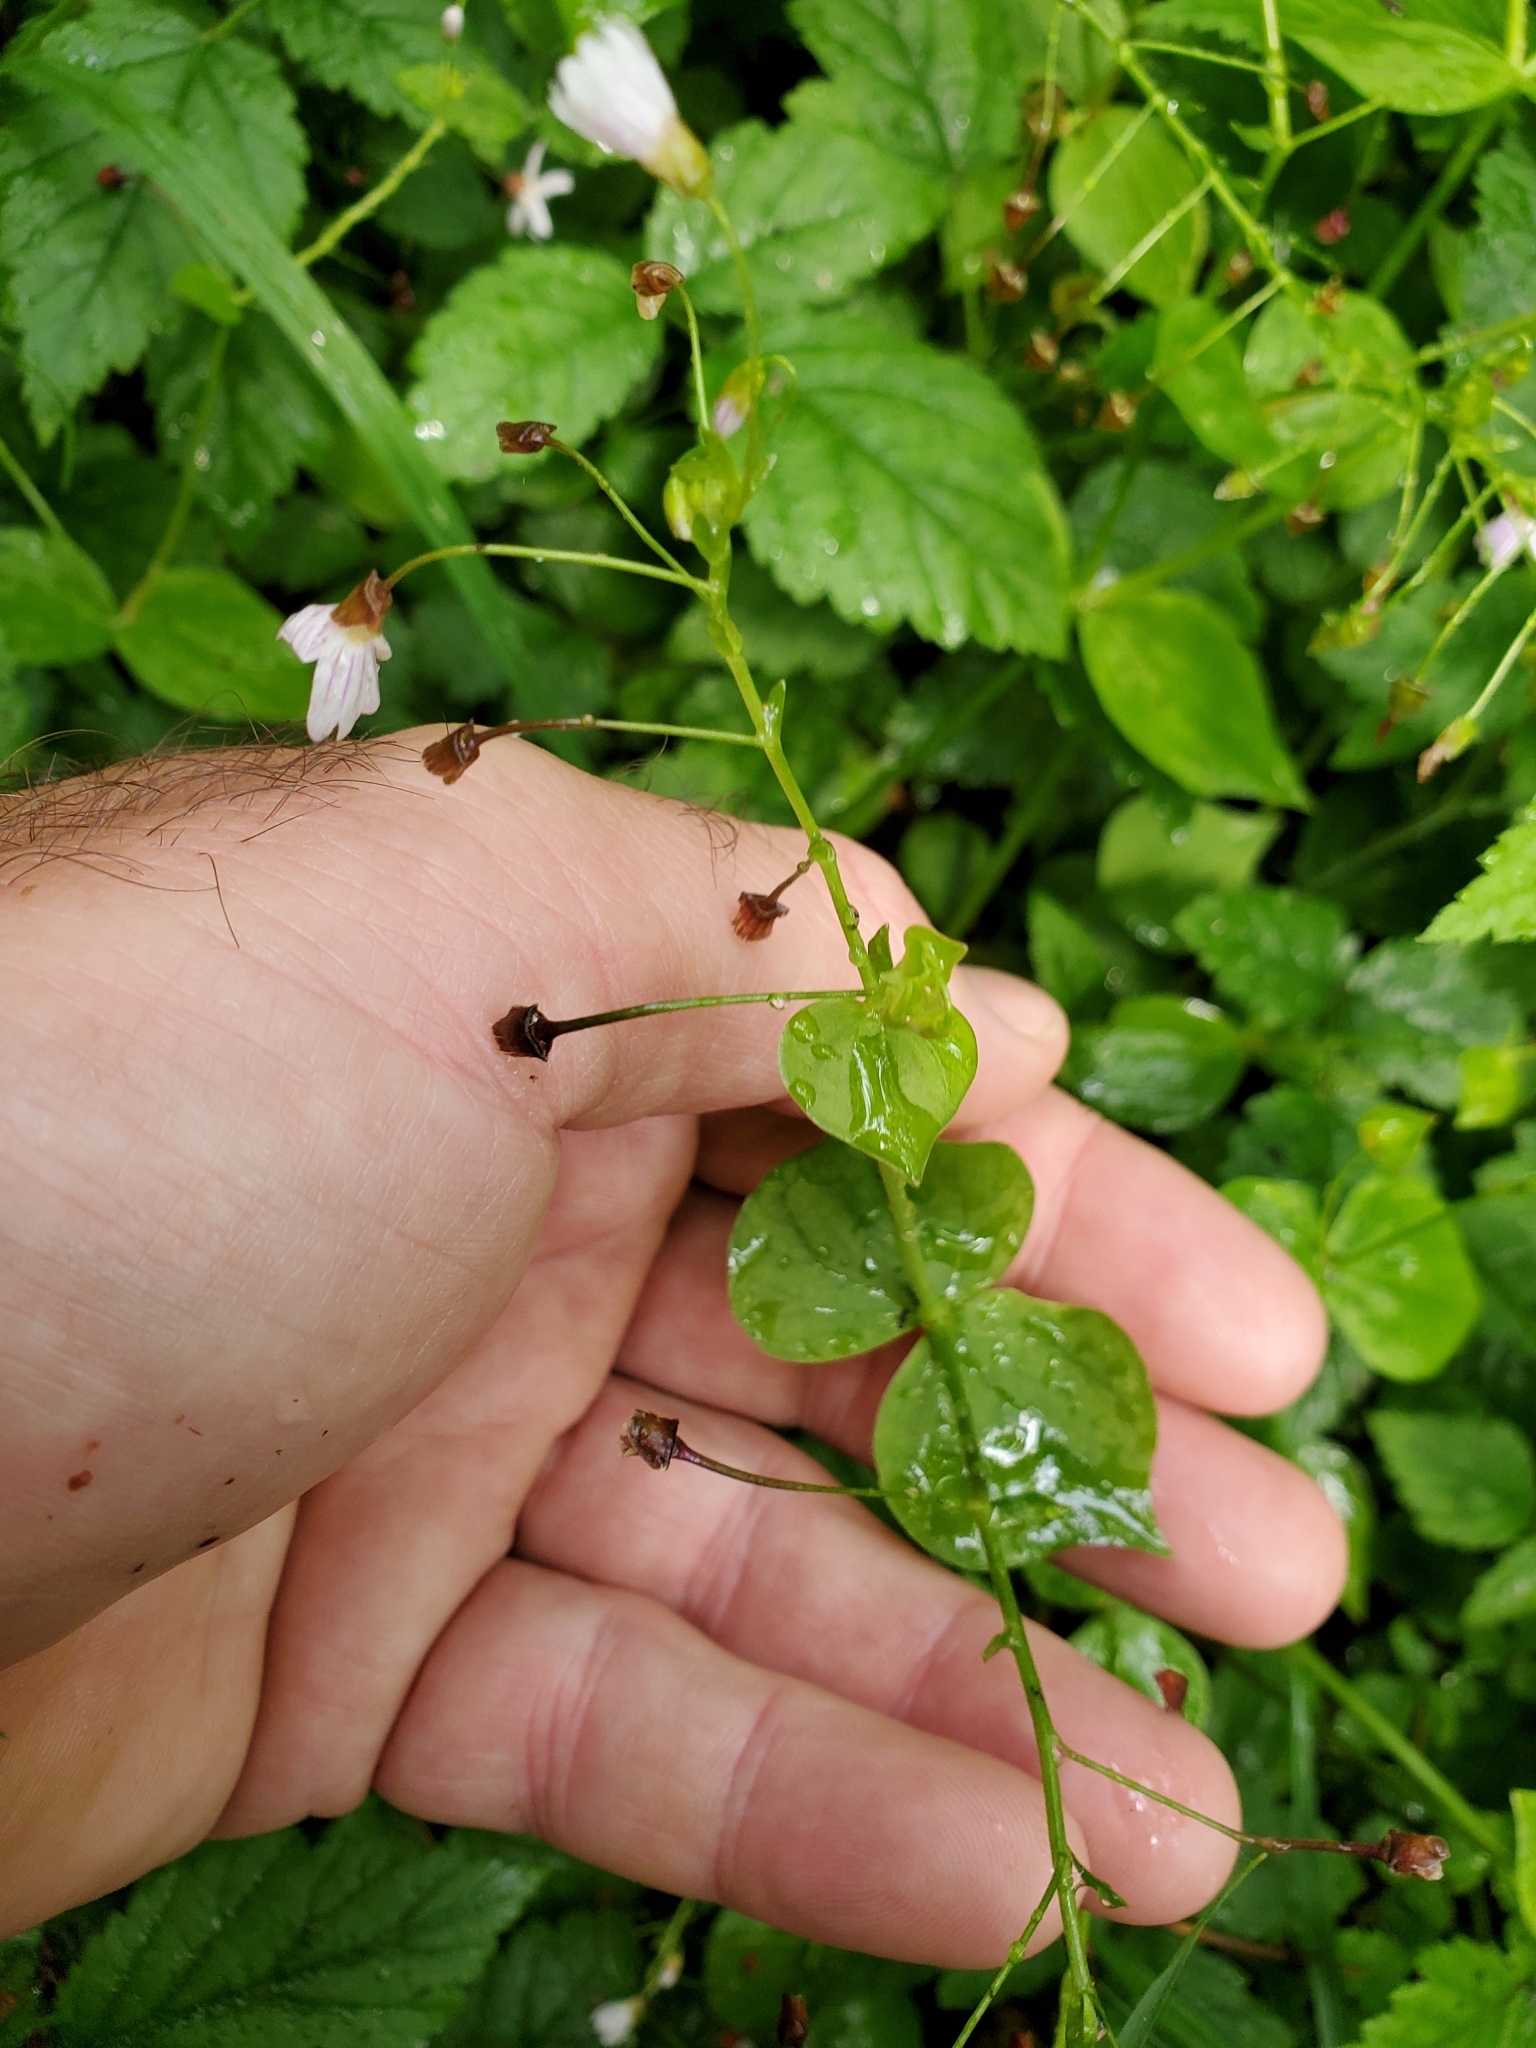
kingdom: Plantae
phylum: Tracheophyta
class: Magnoliopsida
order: Caryophyllales
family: Montiaceae
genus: Claytonia
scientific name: Claytonia sibirica
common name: Pink purslane
